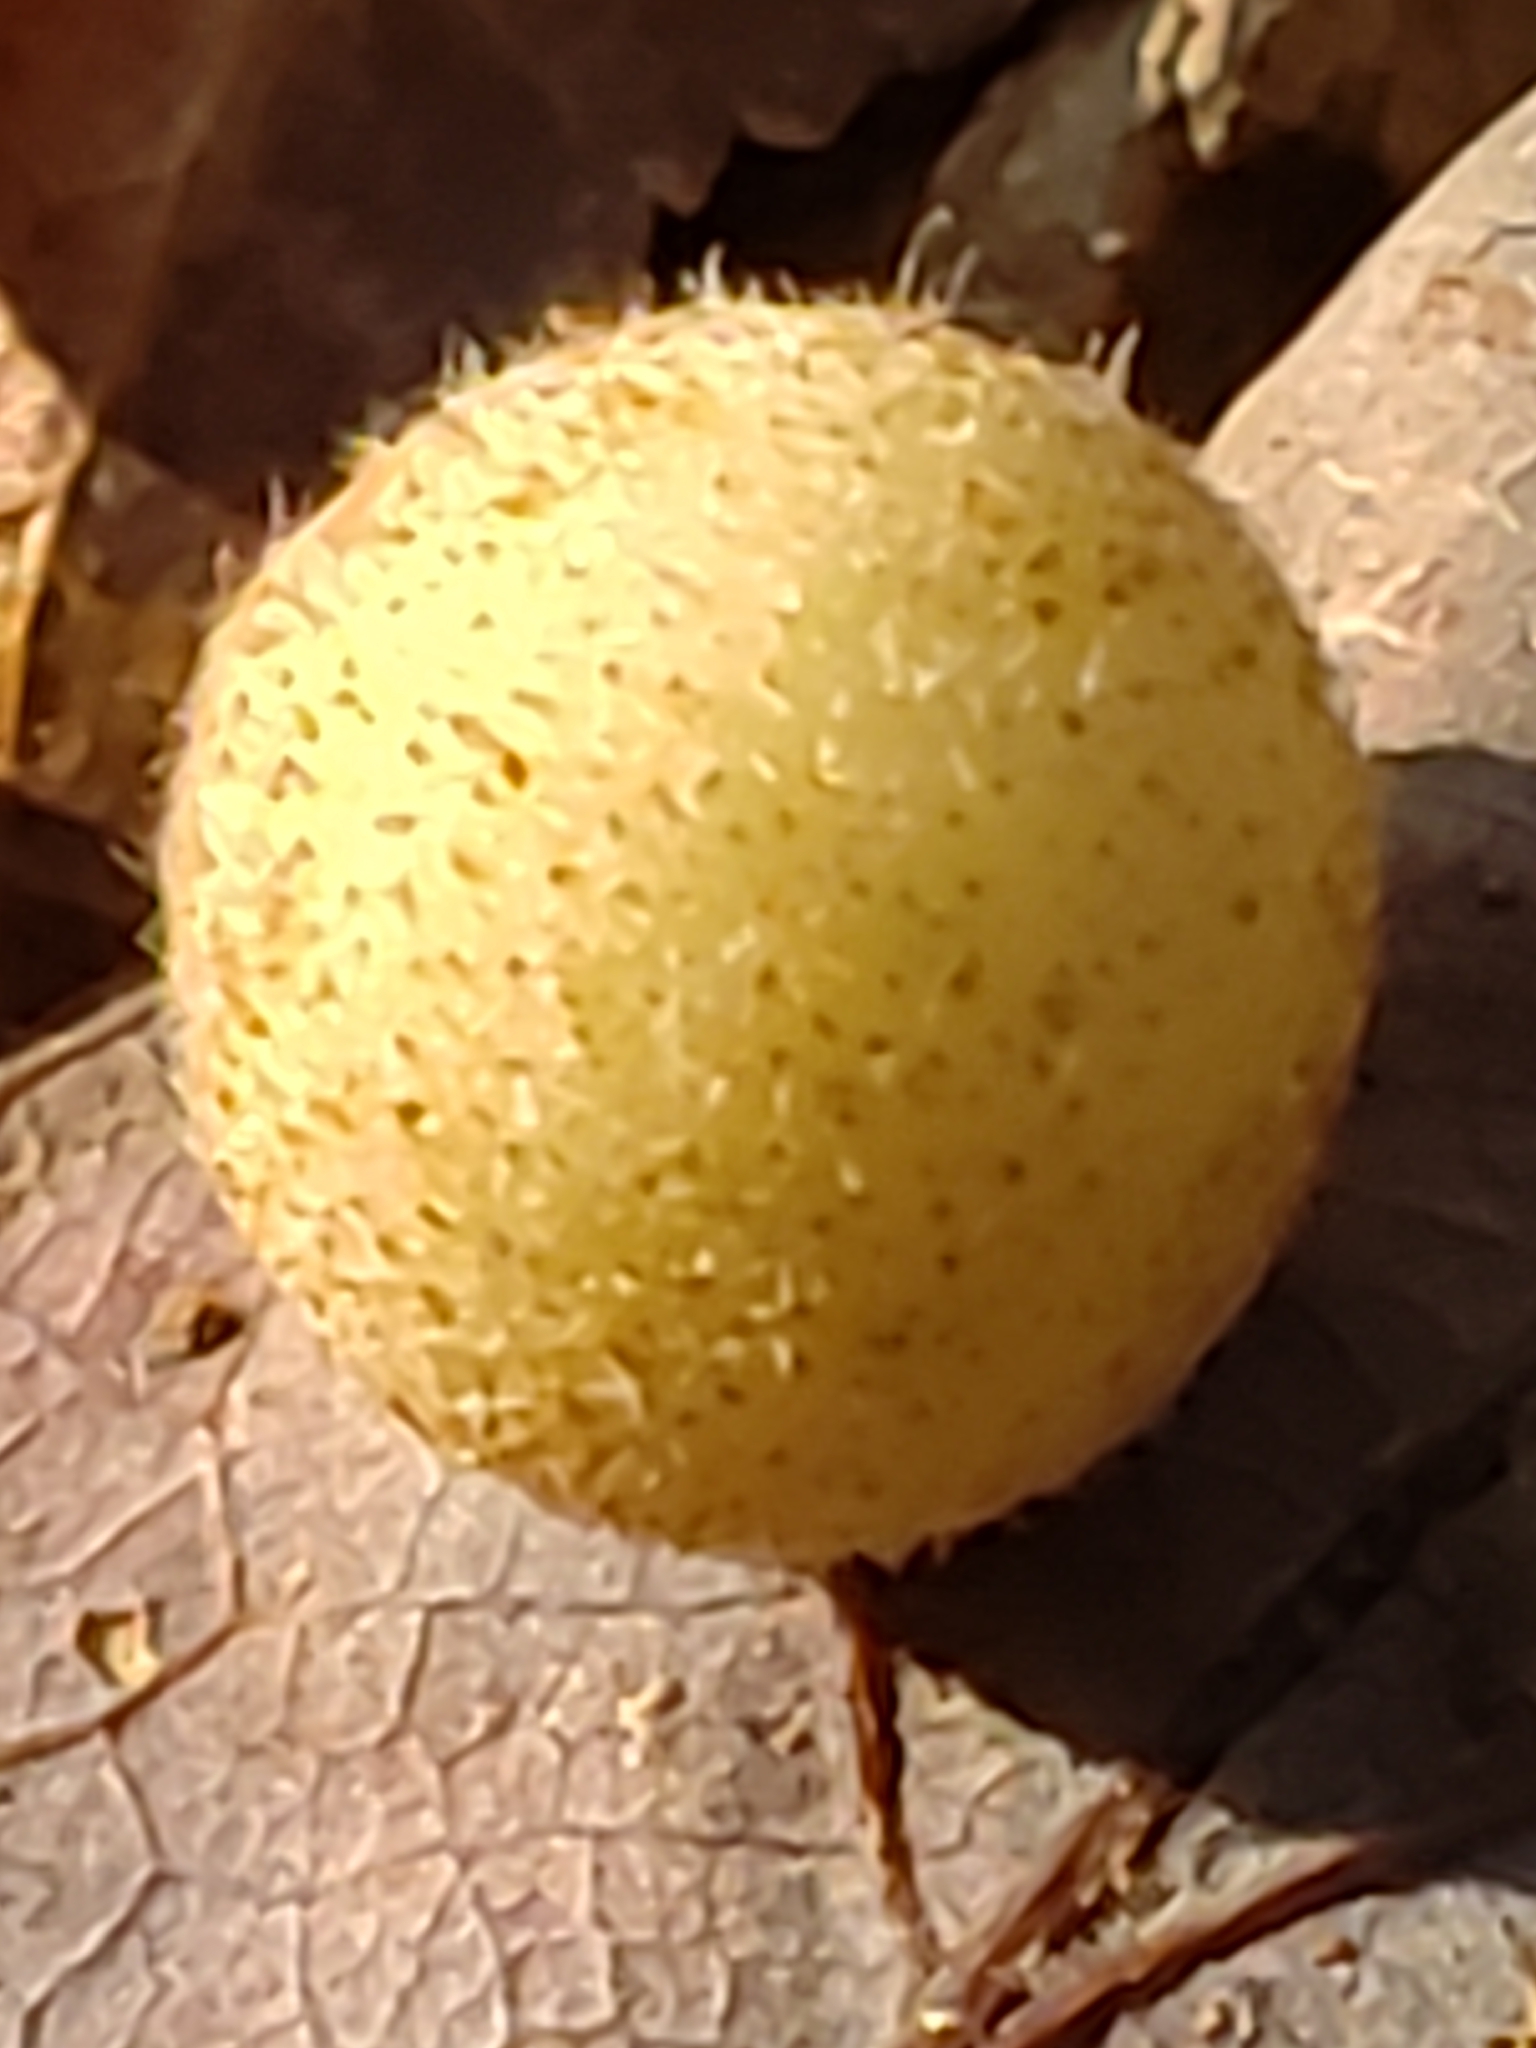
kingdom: Animalia
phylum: Arthropoda
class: Insecta
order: Hymenoptera
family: Cynipidae
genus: Philonix
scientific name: Philonix fulvicollis
